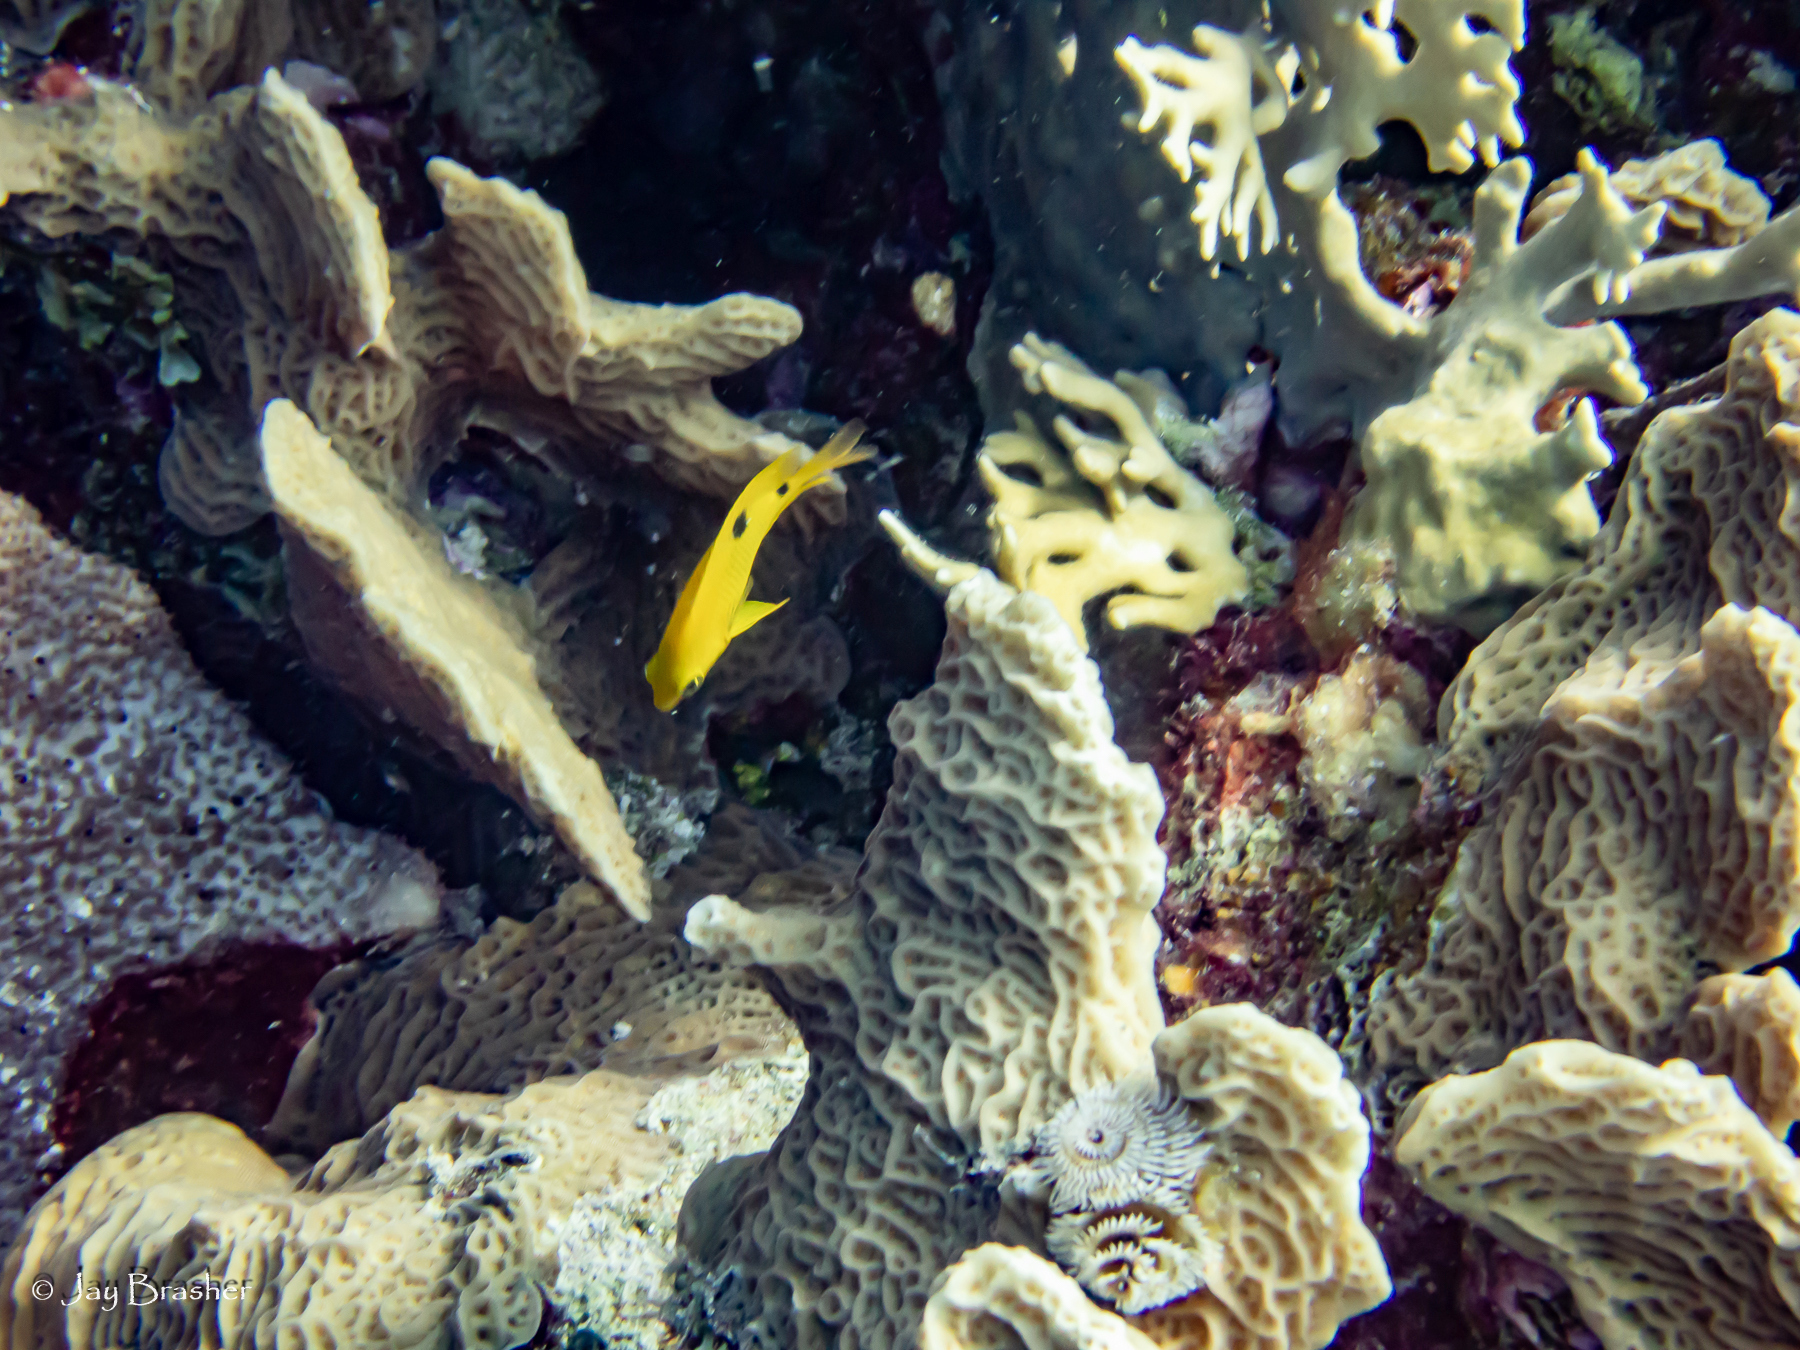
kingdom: Animalia
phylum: Cnidaria
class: Hydrozoa
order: Anthoathecata
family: Milleporidae
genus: Millepora
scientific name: Millepora alcicornis
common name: Branching fire coral
